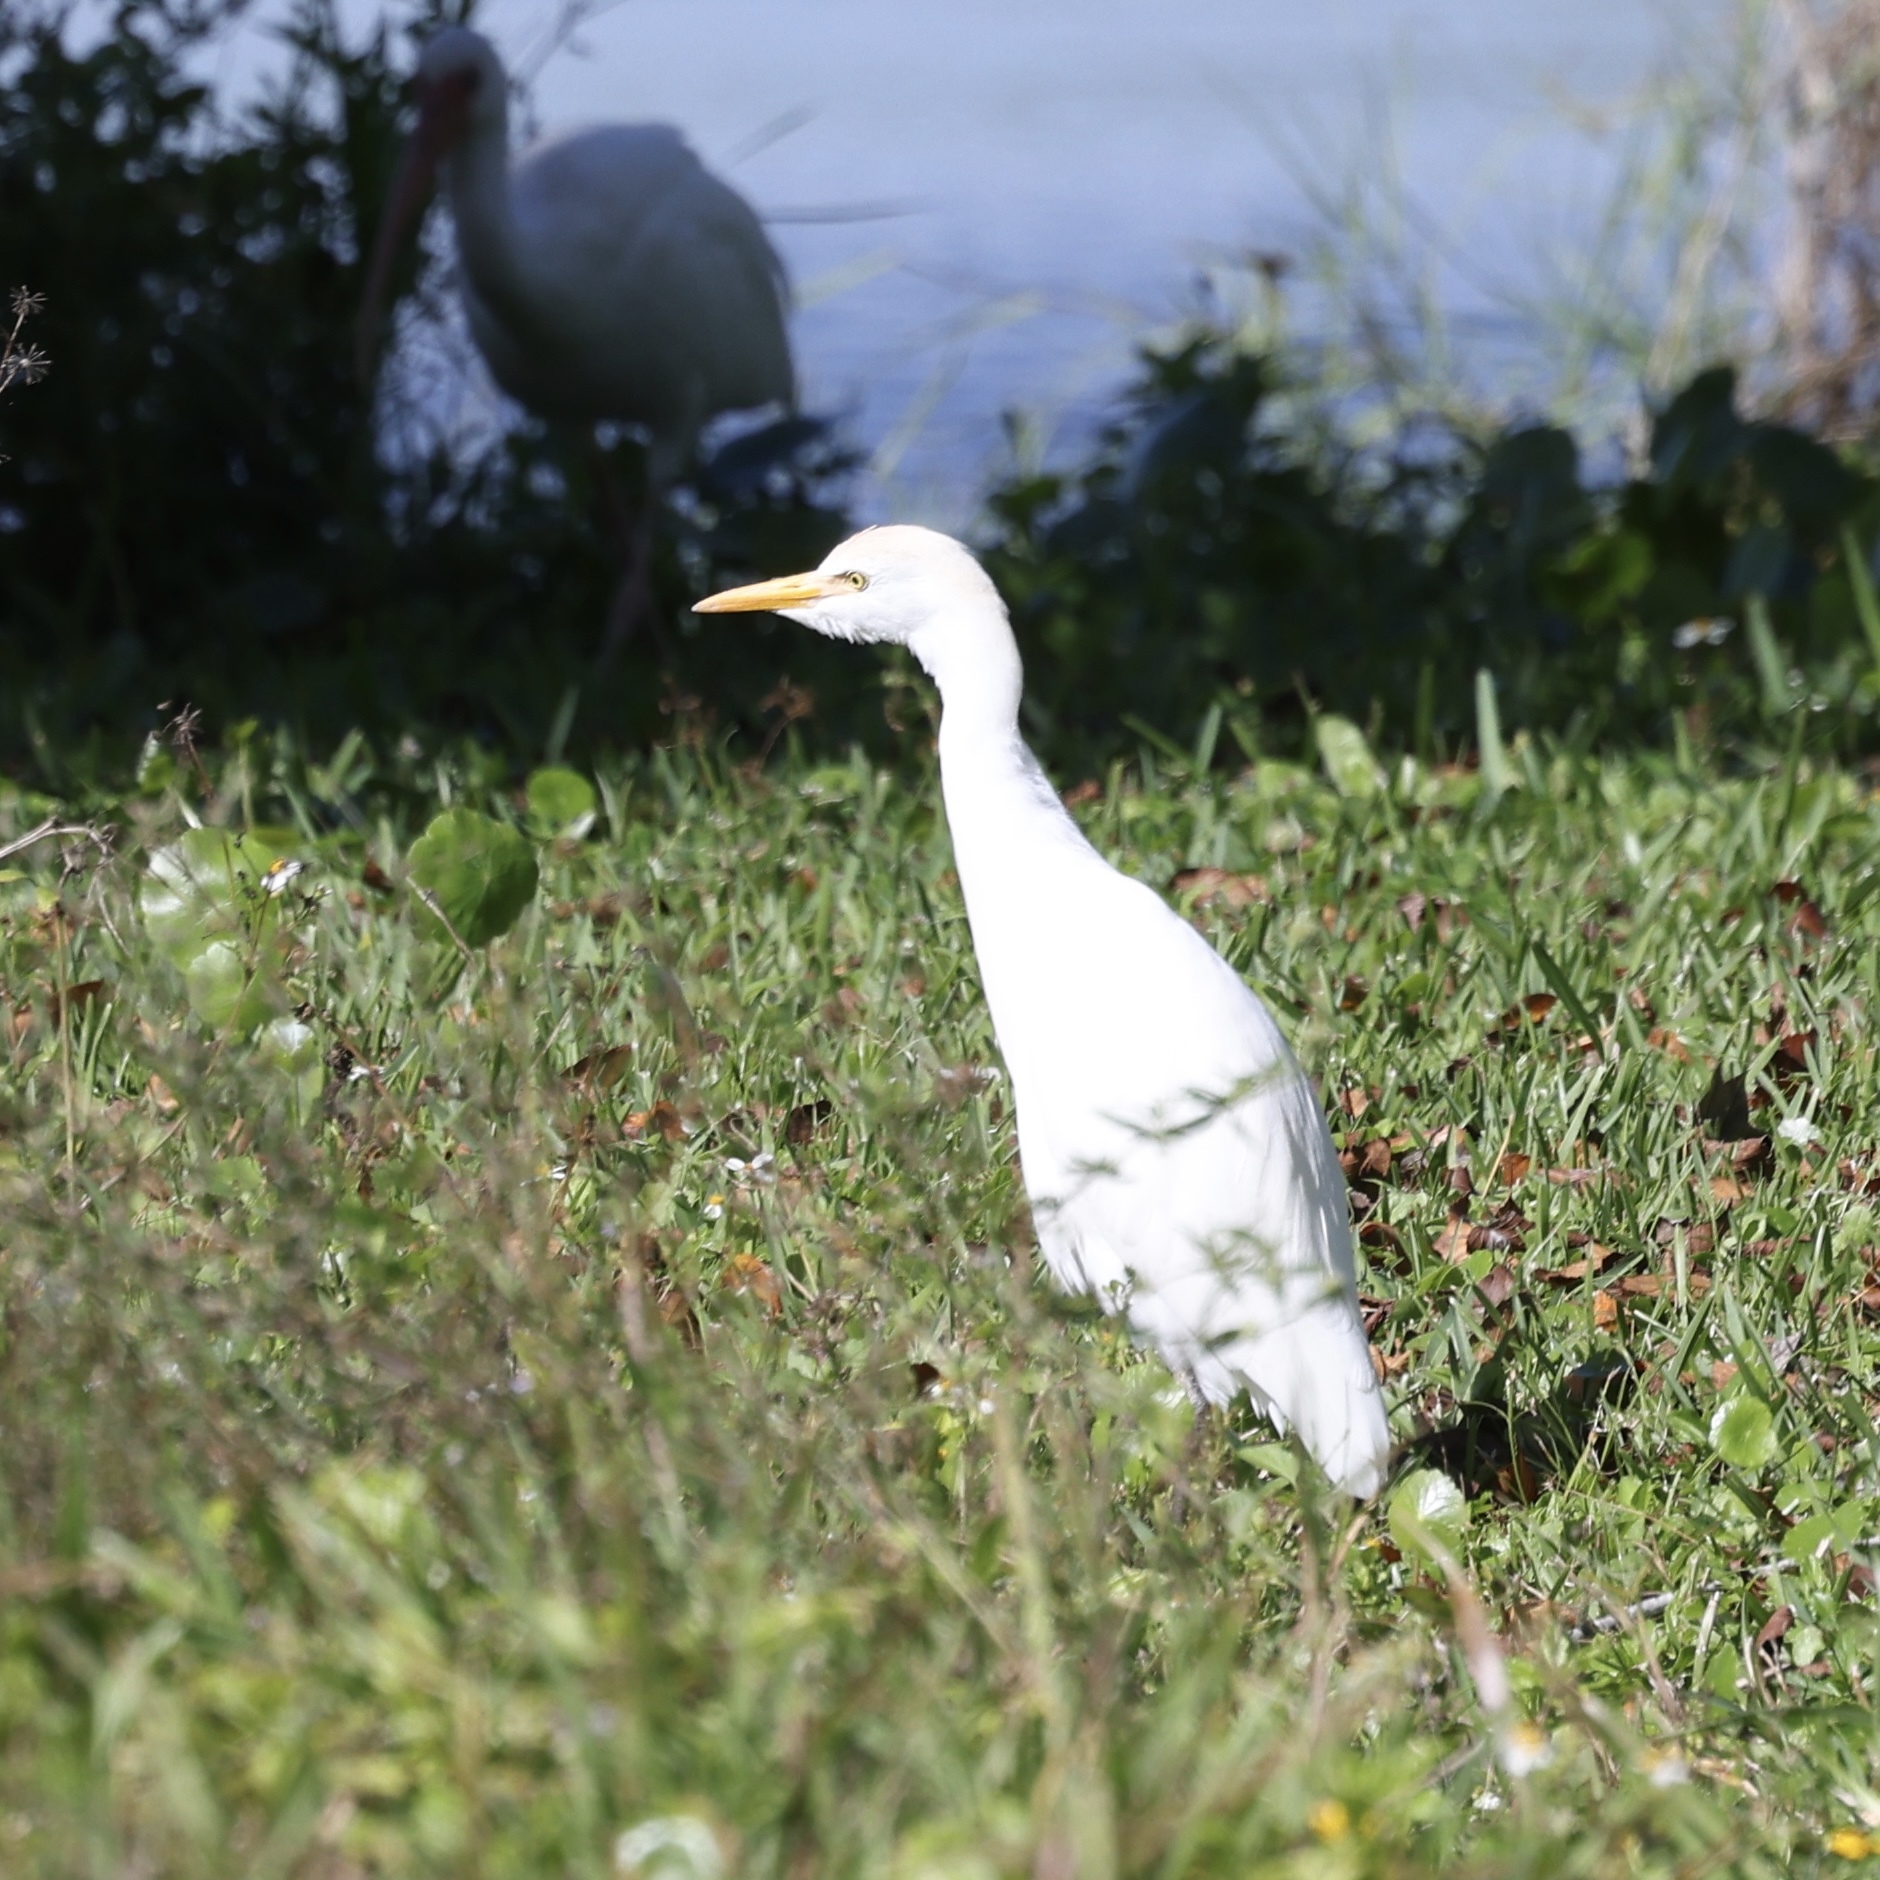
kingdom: Animalia
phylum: Chordata
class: Aves
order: Pelecaniformes
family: Ardeidae
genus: Bubulcus
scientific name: Bubulcus ibis
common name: Cattle egret
